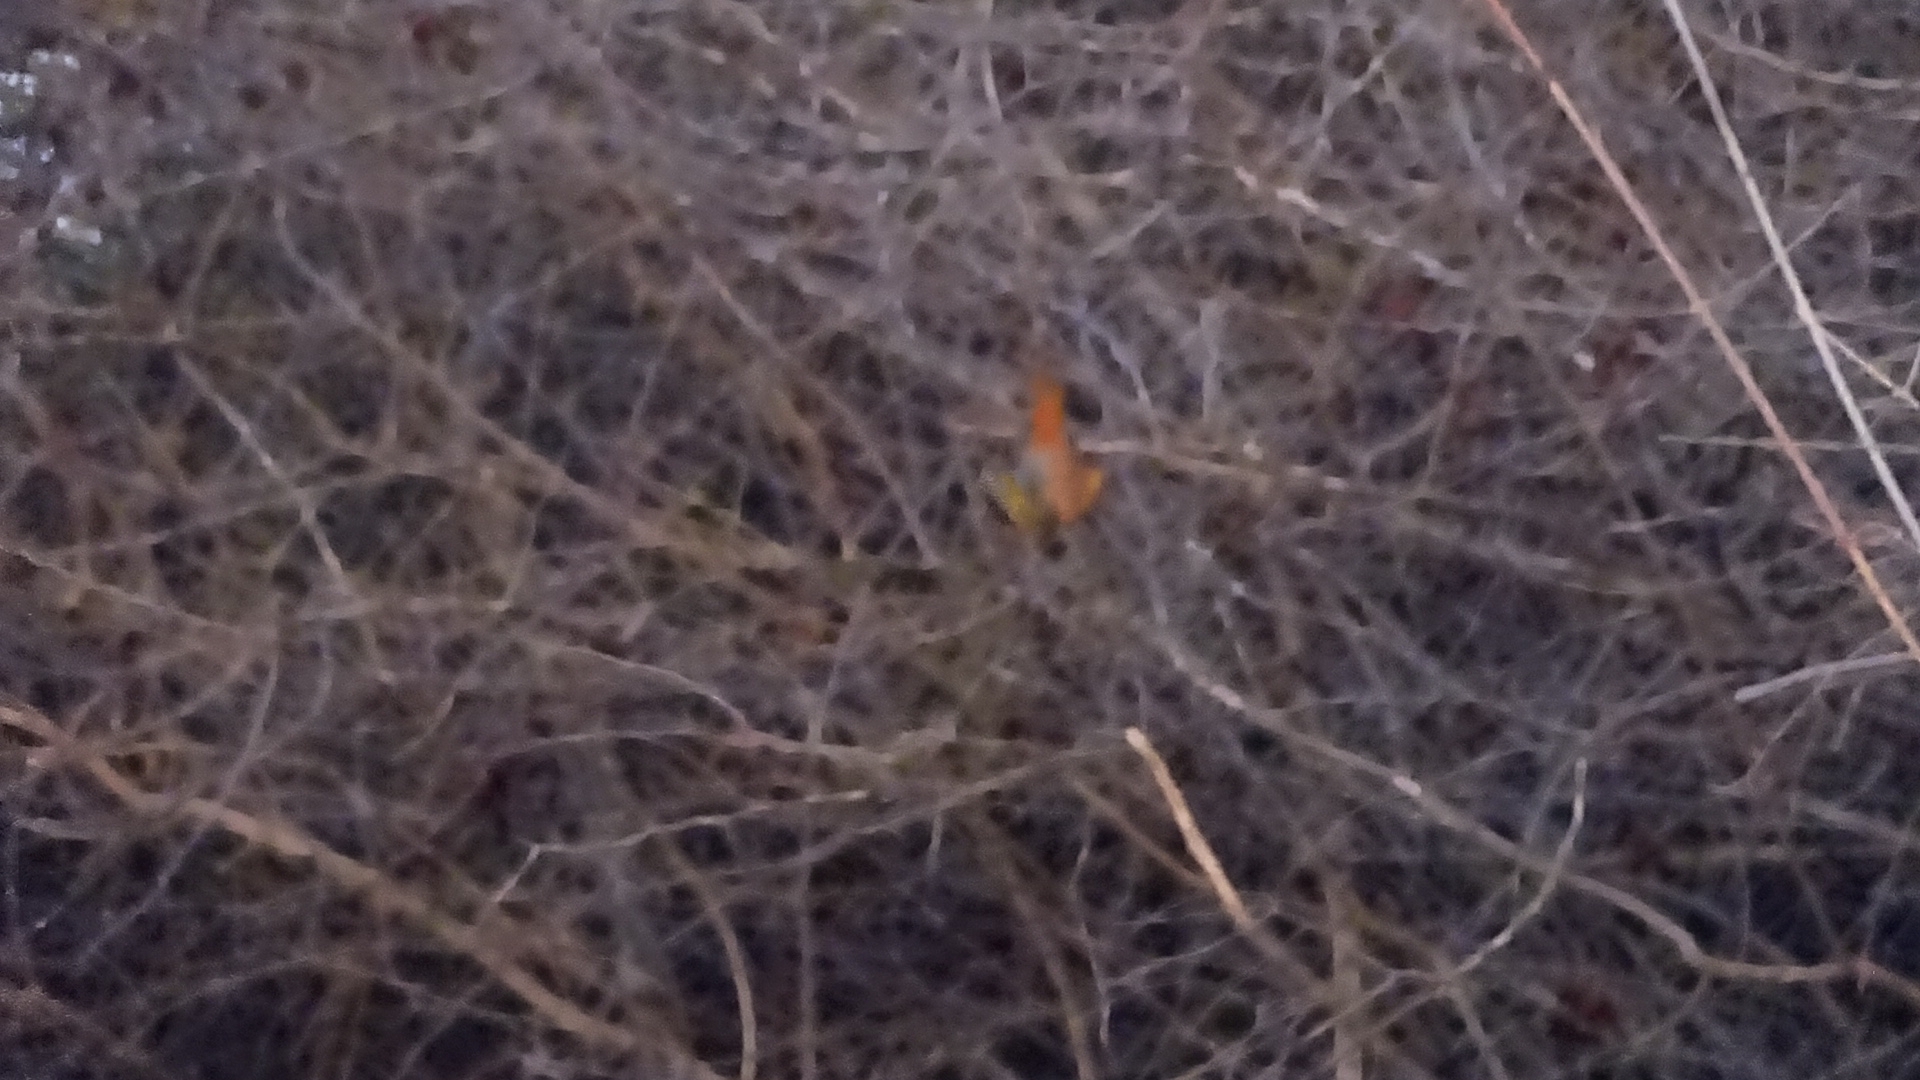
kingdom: Animalia
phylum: Chordata
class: Mammalia
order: Chiroptera
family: Megadermatidae
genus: Lavia
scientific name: Lavia frons
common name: Yellow-winged bat
